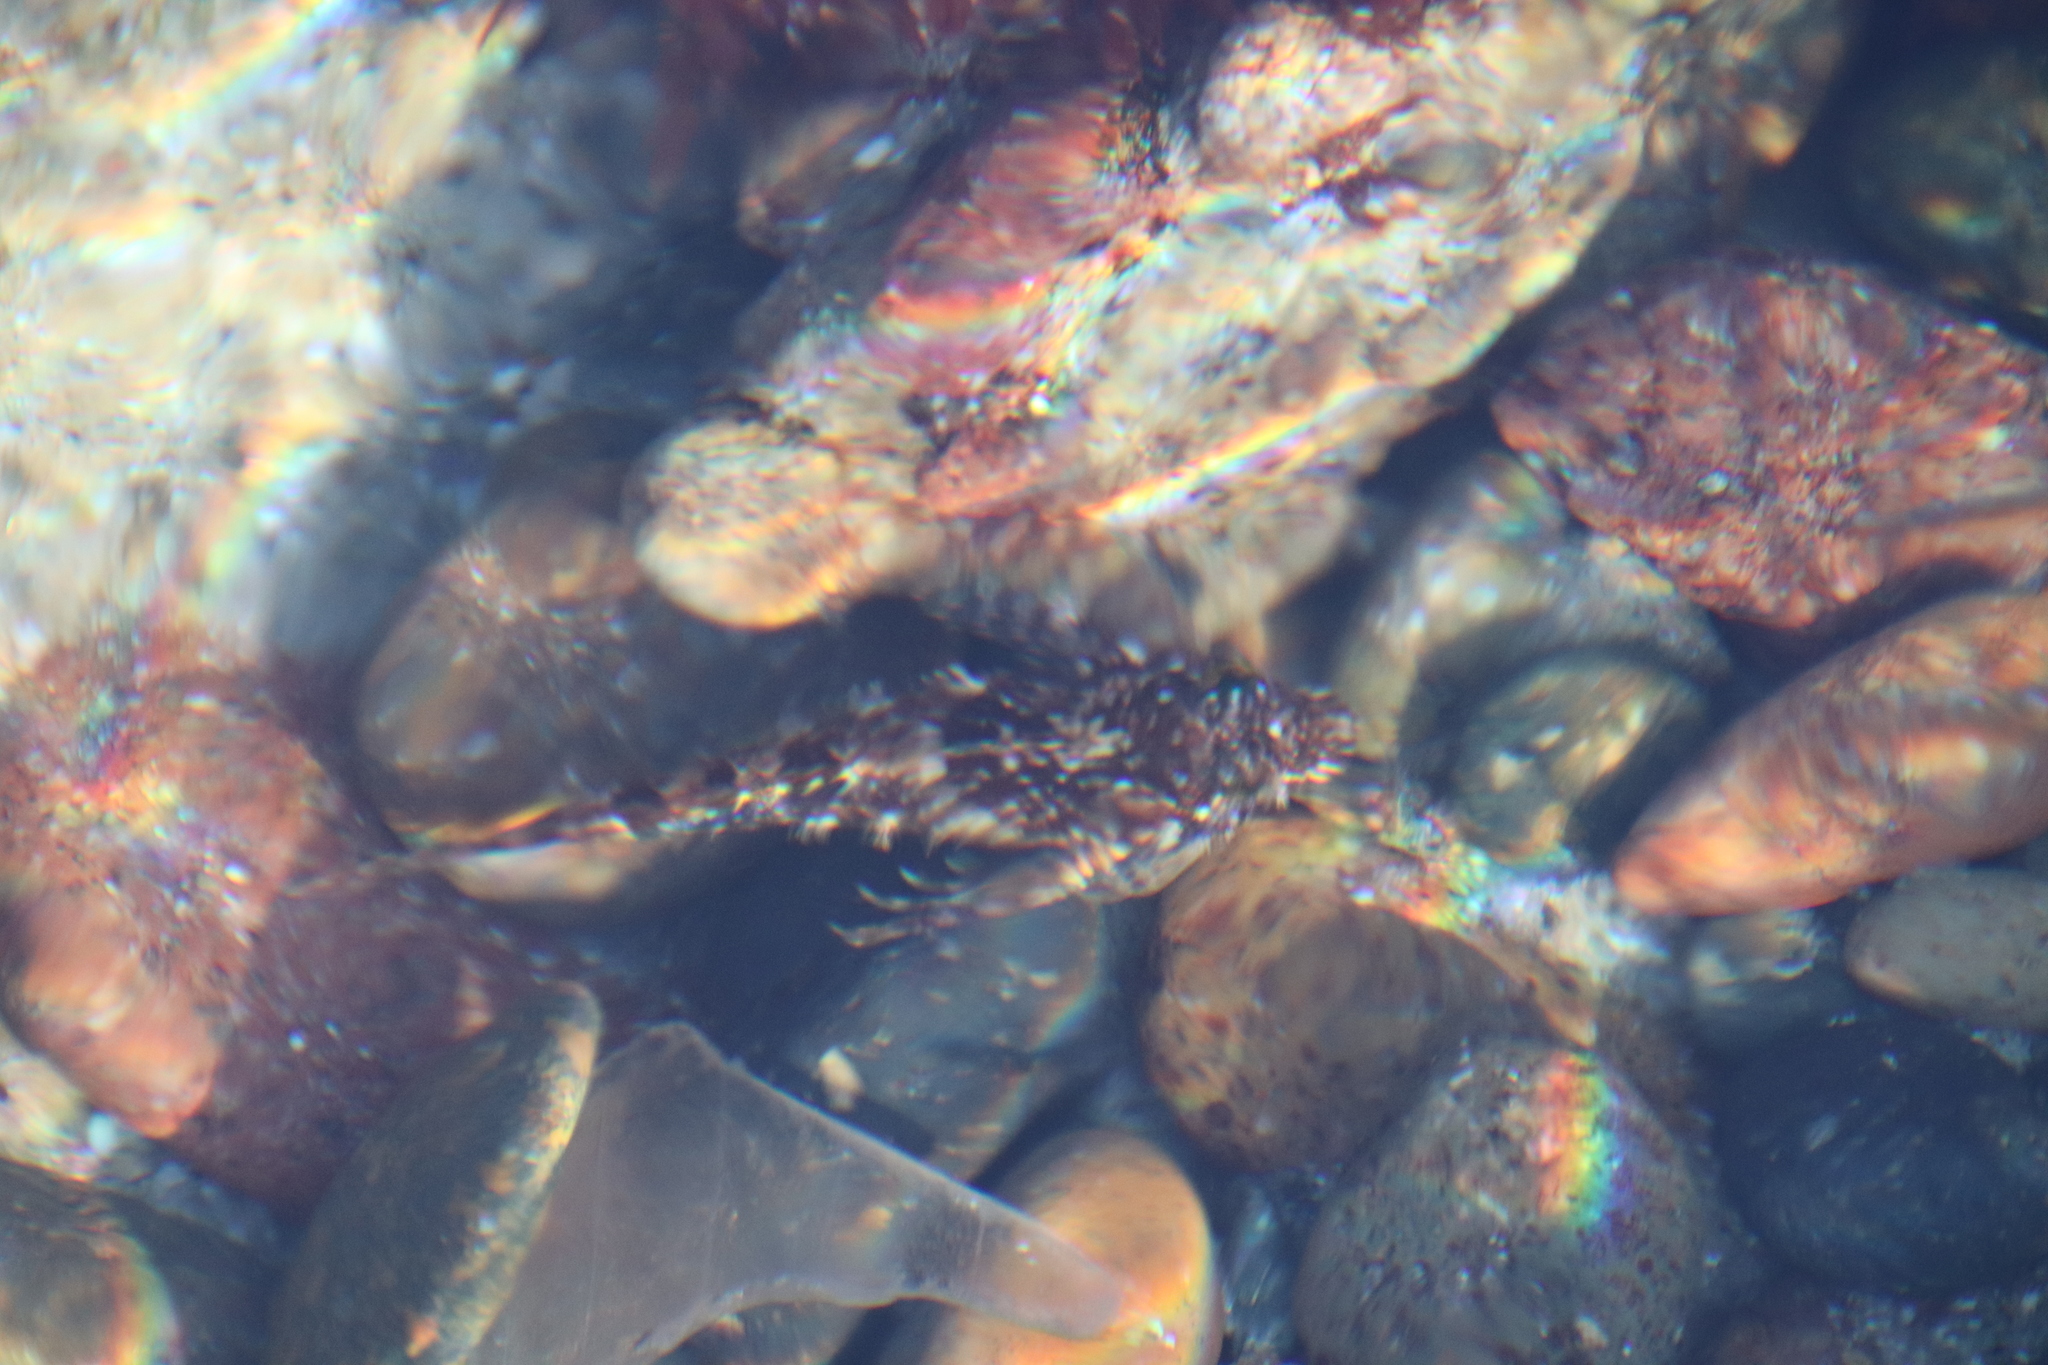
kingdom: Animalia
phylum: Chordata
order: Scorpaeniformes
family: Cottidae
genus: Clinocottus
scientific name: Clinocottus analis
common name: Woolly sculpin
